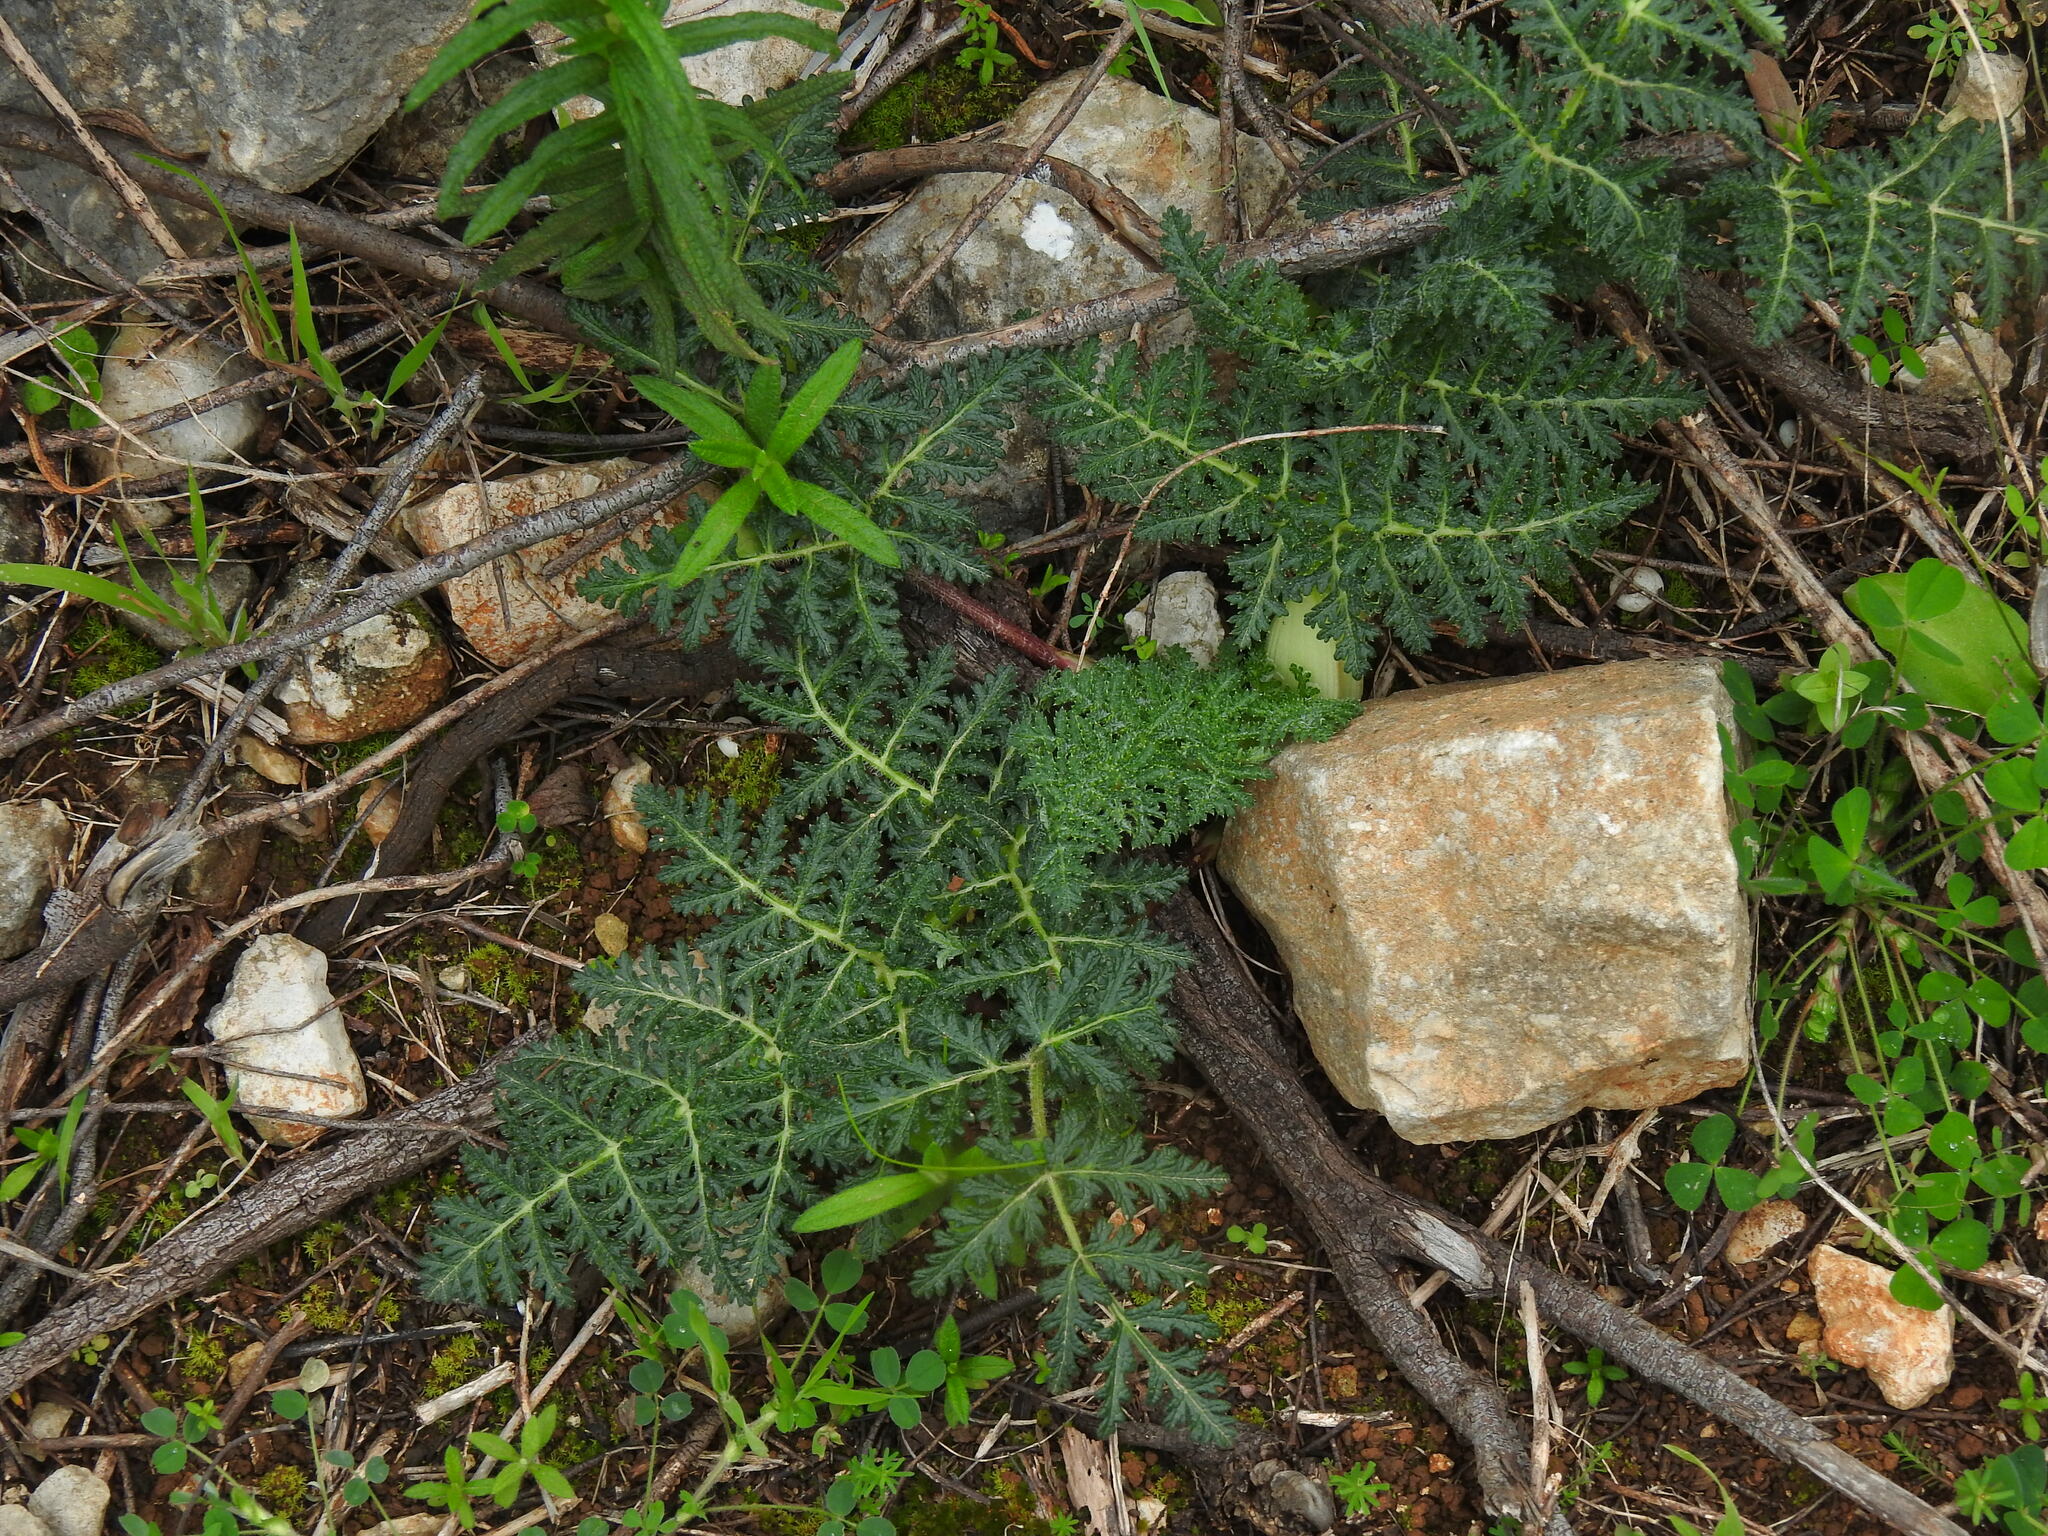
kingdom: Plantae
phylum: Tracheophyta
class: Magnoliopsida
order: Apiales
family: Apiaceae
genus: Thapsia
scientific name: Thapsia villosa
